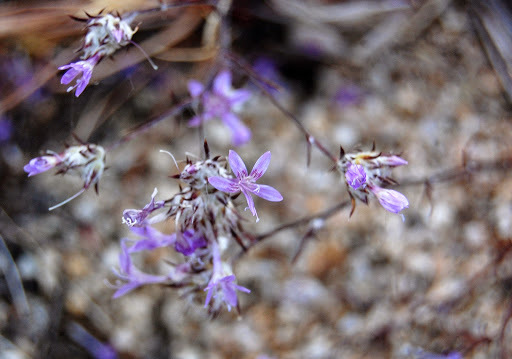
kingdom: Plantae
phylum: Tracheophyta
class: Magnoliopsida
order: Ericales
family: Polemoniaceae
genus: Eriastrum
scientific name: Eriastrum eremicum
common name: Desert eriastrum
